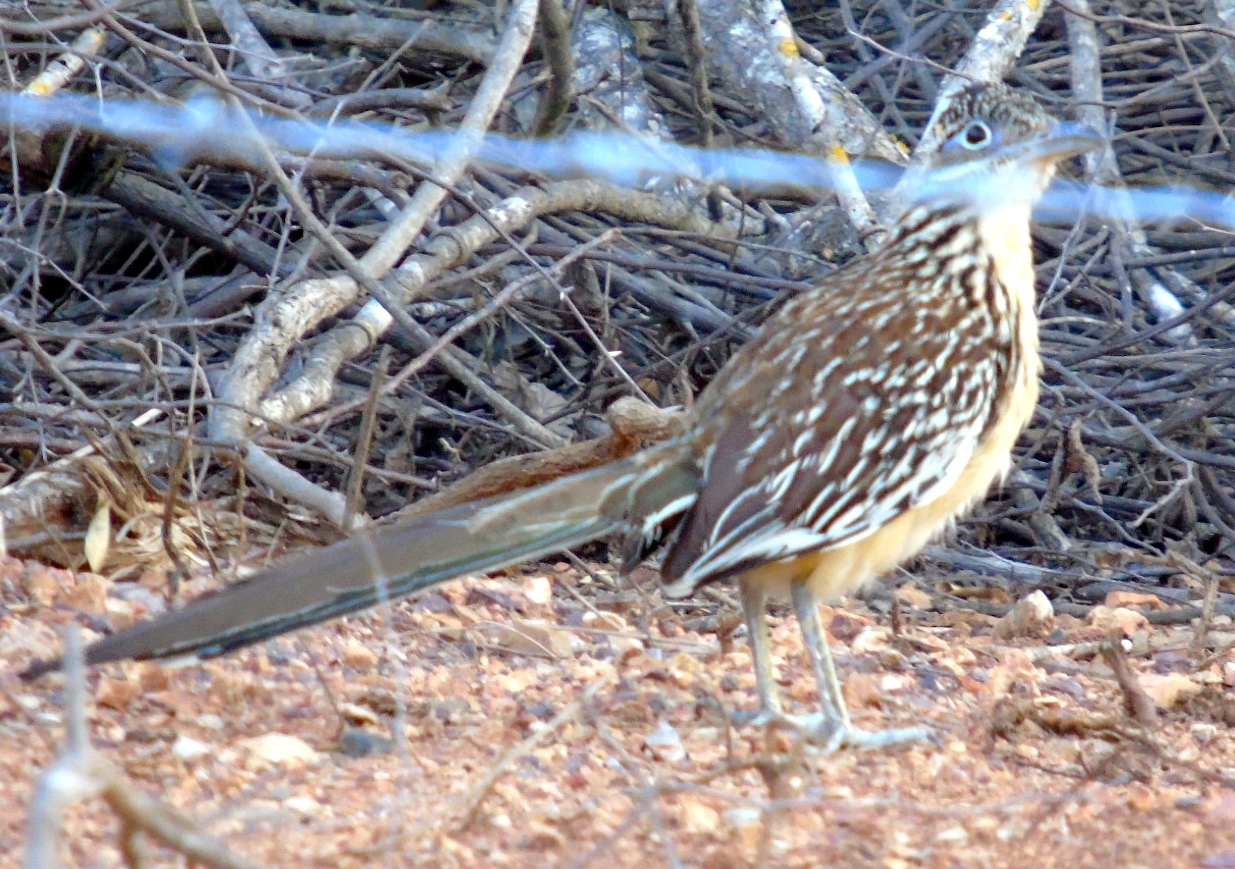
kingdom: Animalia
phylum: Chordata
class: Aves
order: Cuculiformes
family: Cuculidae
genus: Geococcyx
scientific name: Geococcyx velox
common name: Lesser roadrunner
